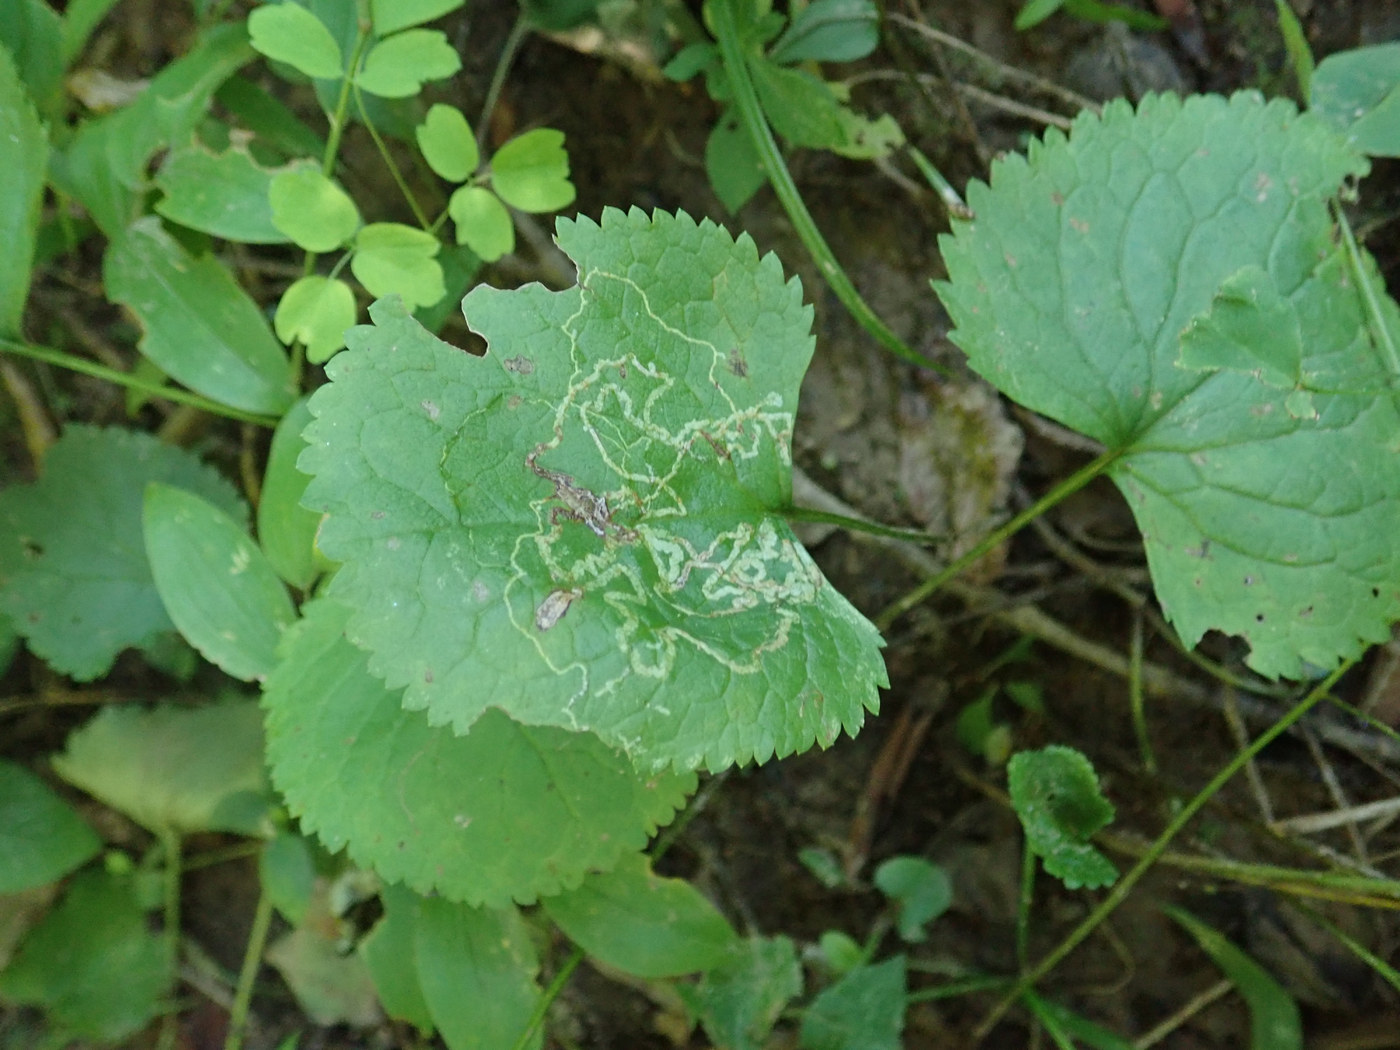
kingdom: Animalia
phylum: Arthropoda
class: Insecta
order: Lepidoptera
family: Gracillariidae
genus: Phyllocnistis
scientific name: Phyllocnistis insignis
